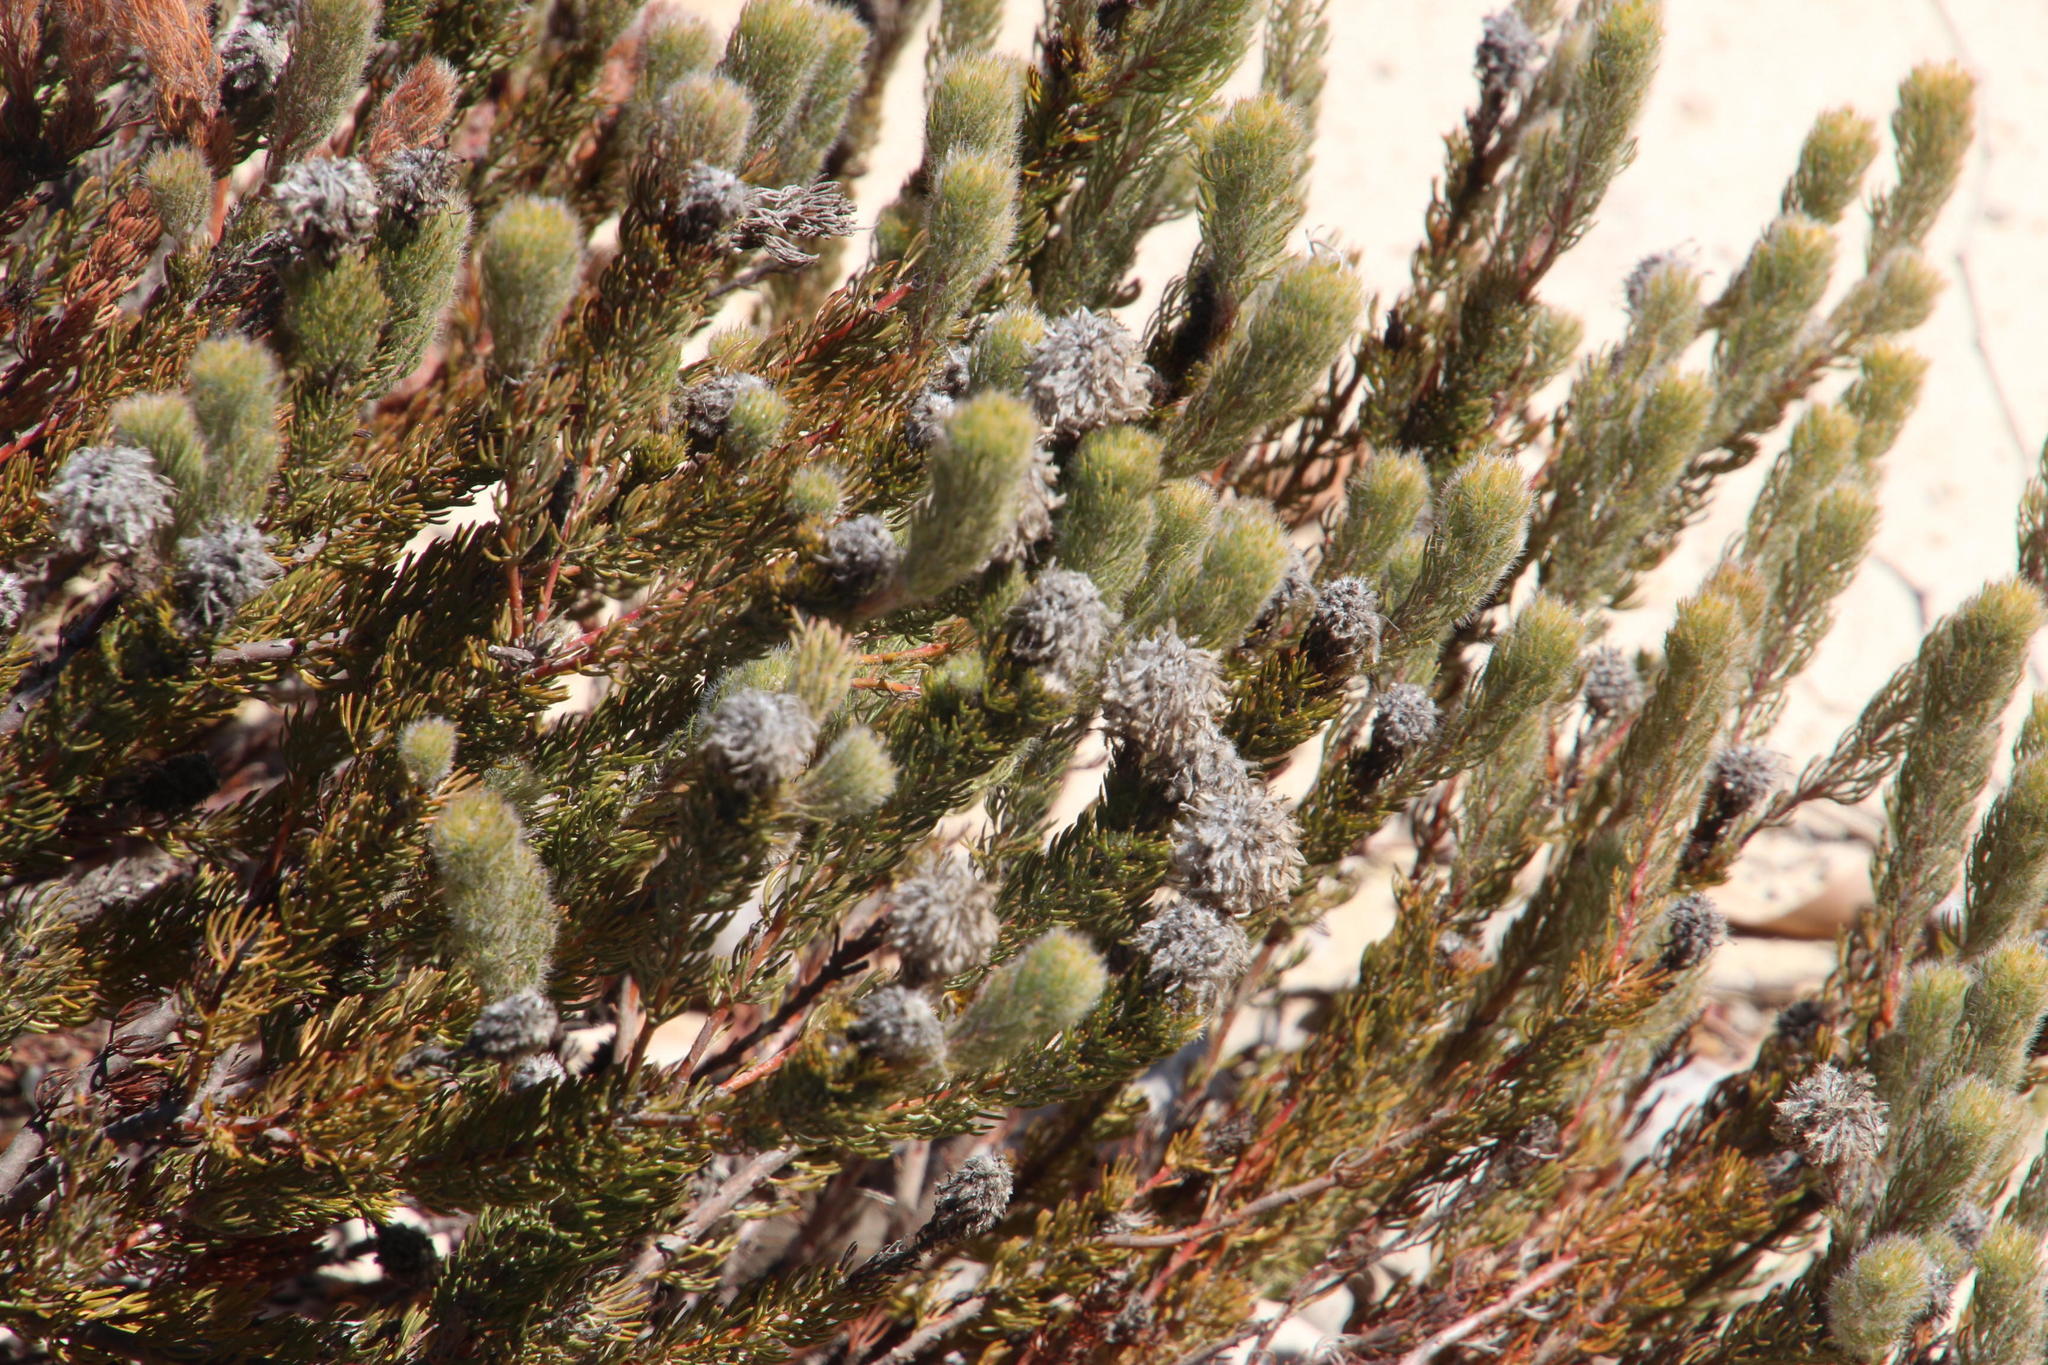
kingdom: Plantae
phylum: Tracheophyta
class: Magnoliopsida
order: Proteales
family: Proteaceae
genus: Serruria
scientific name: Serruria brownii
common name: Bottlebrush spiderhead
